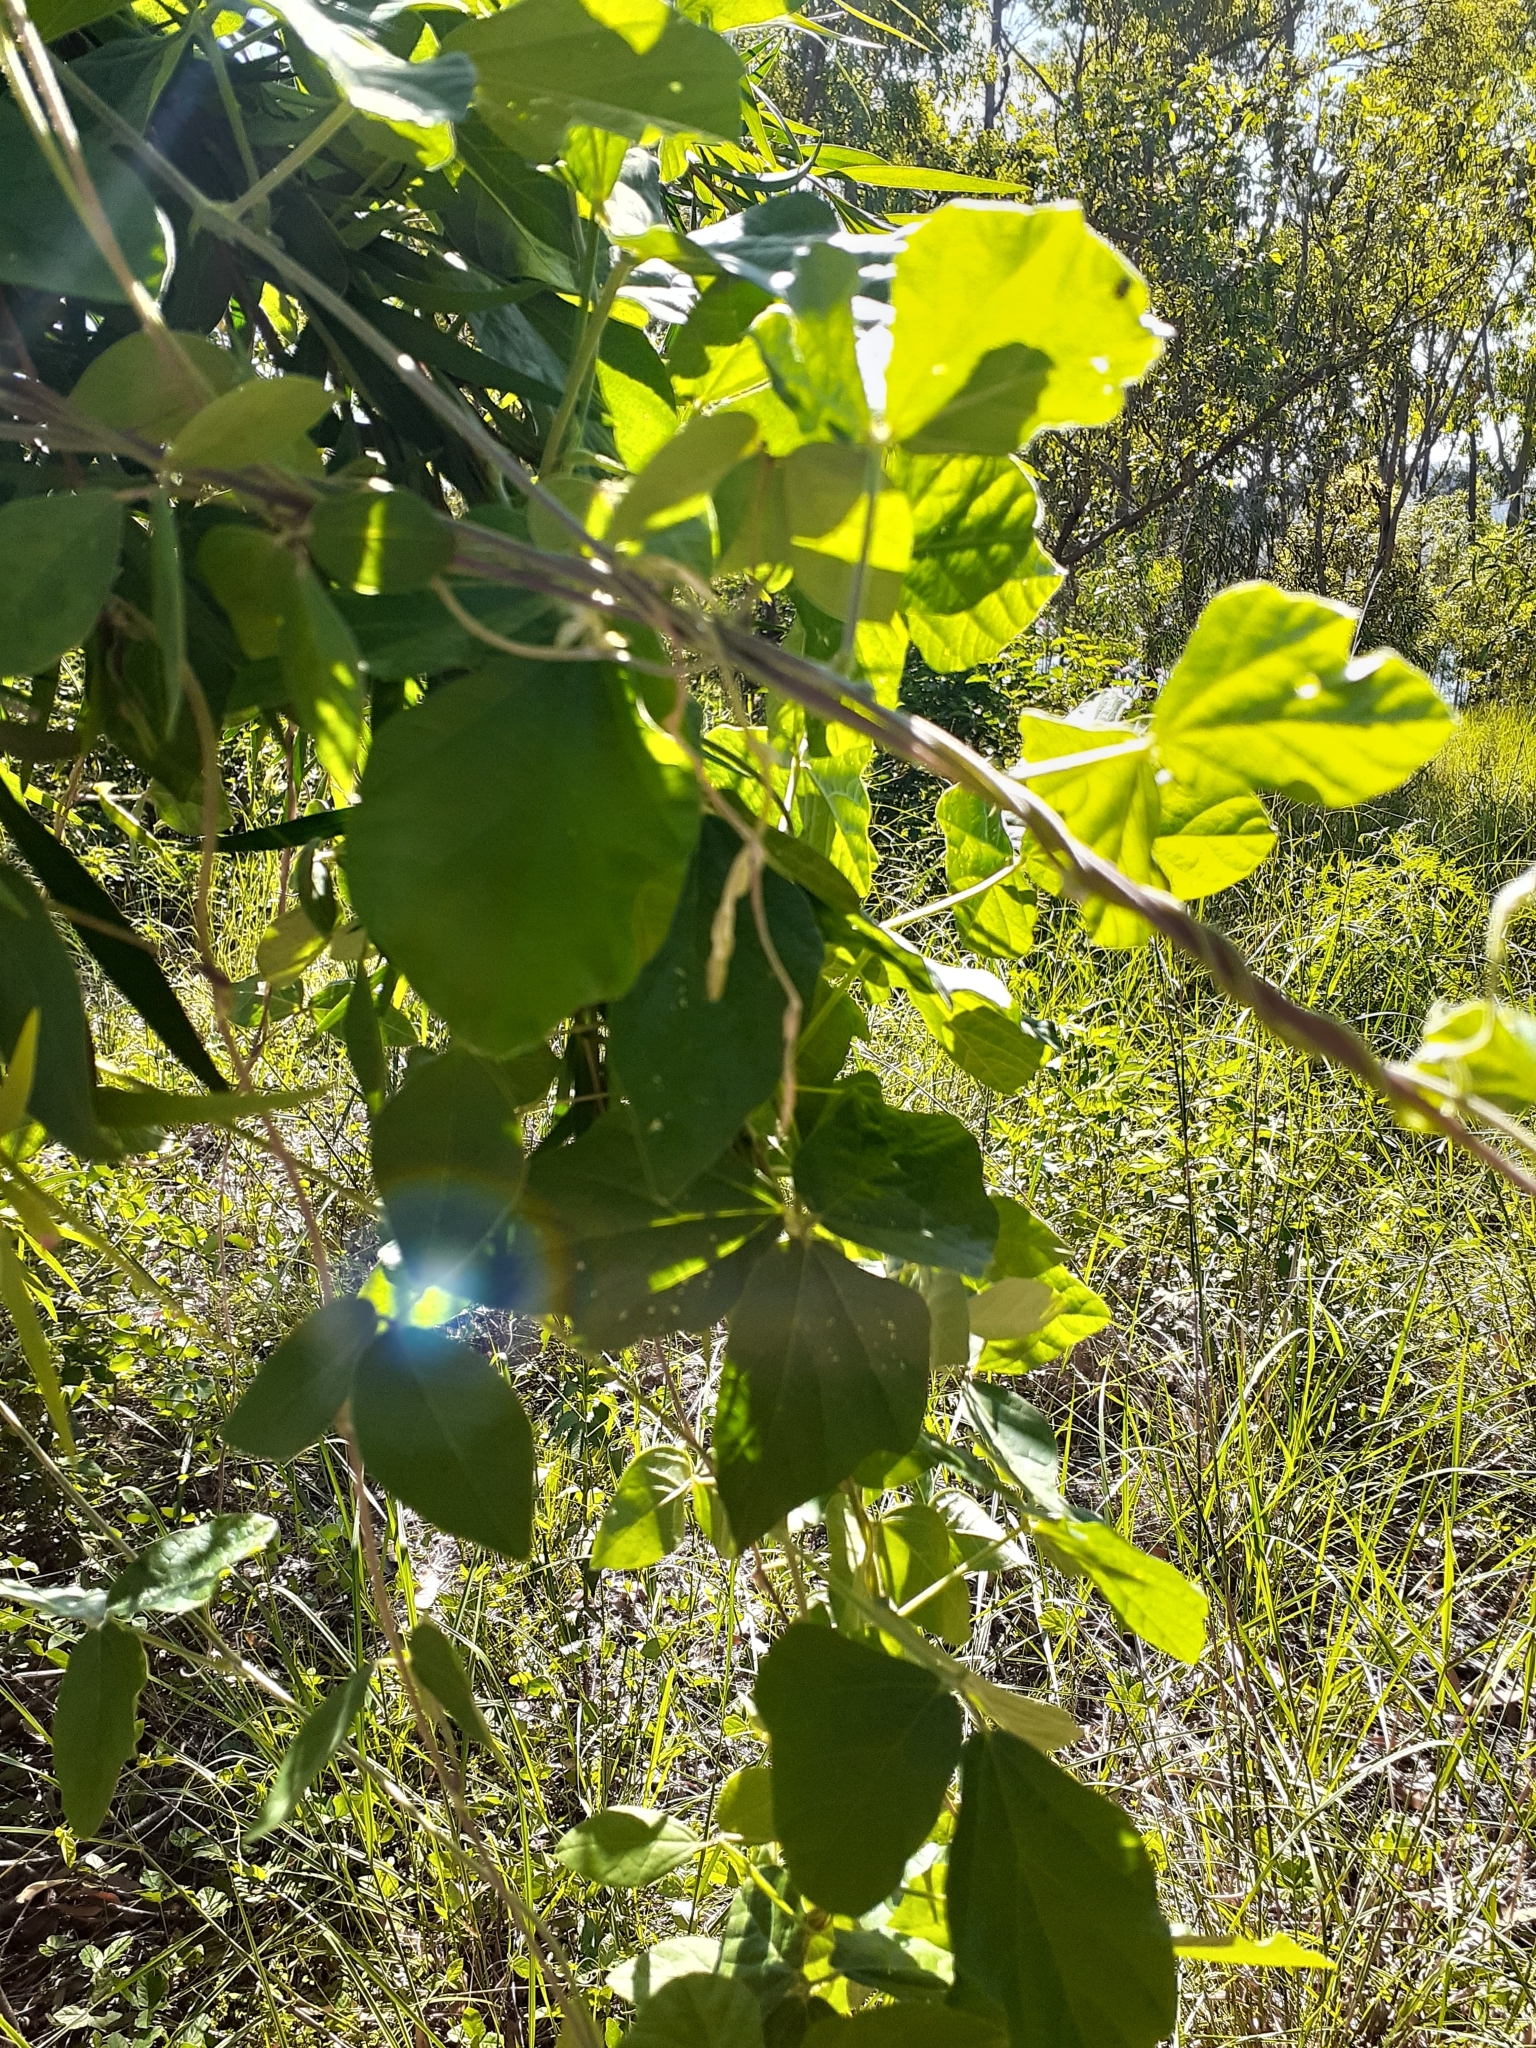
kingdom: Plantae
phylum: Tracheophyta
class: Magnoliopsida
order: Fabales
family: Fabaceae
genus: Macroptilium
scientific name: Macroptilium atropurpureum
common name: Purple bushbean
